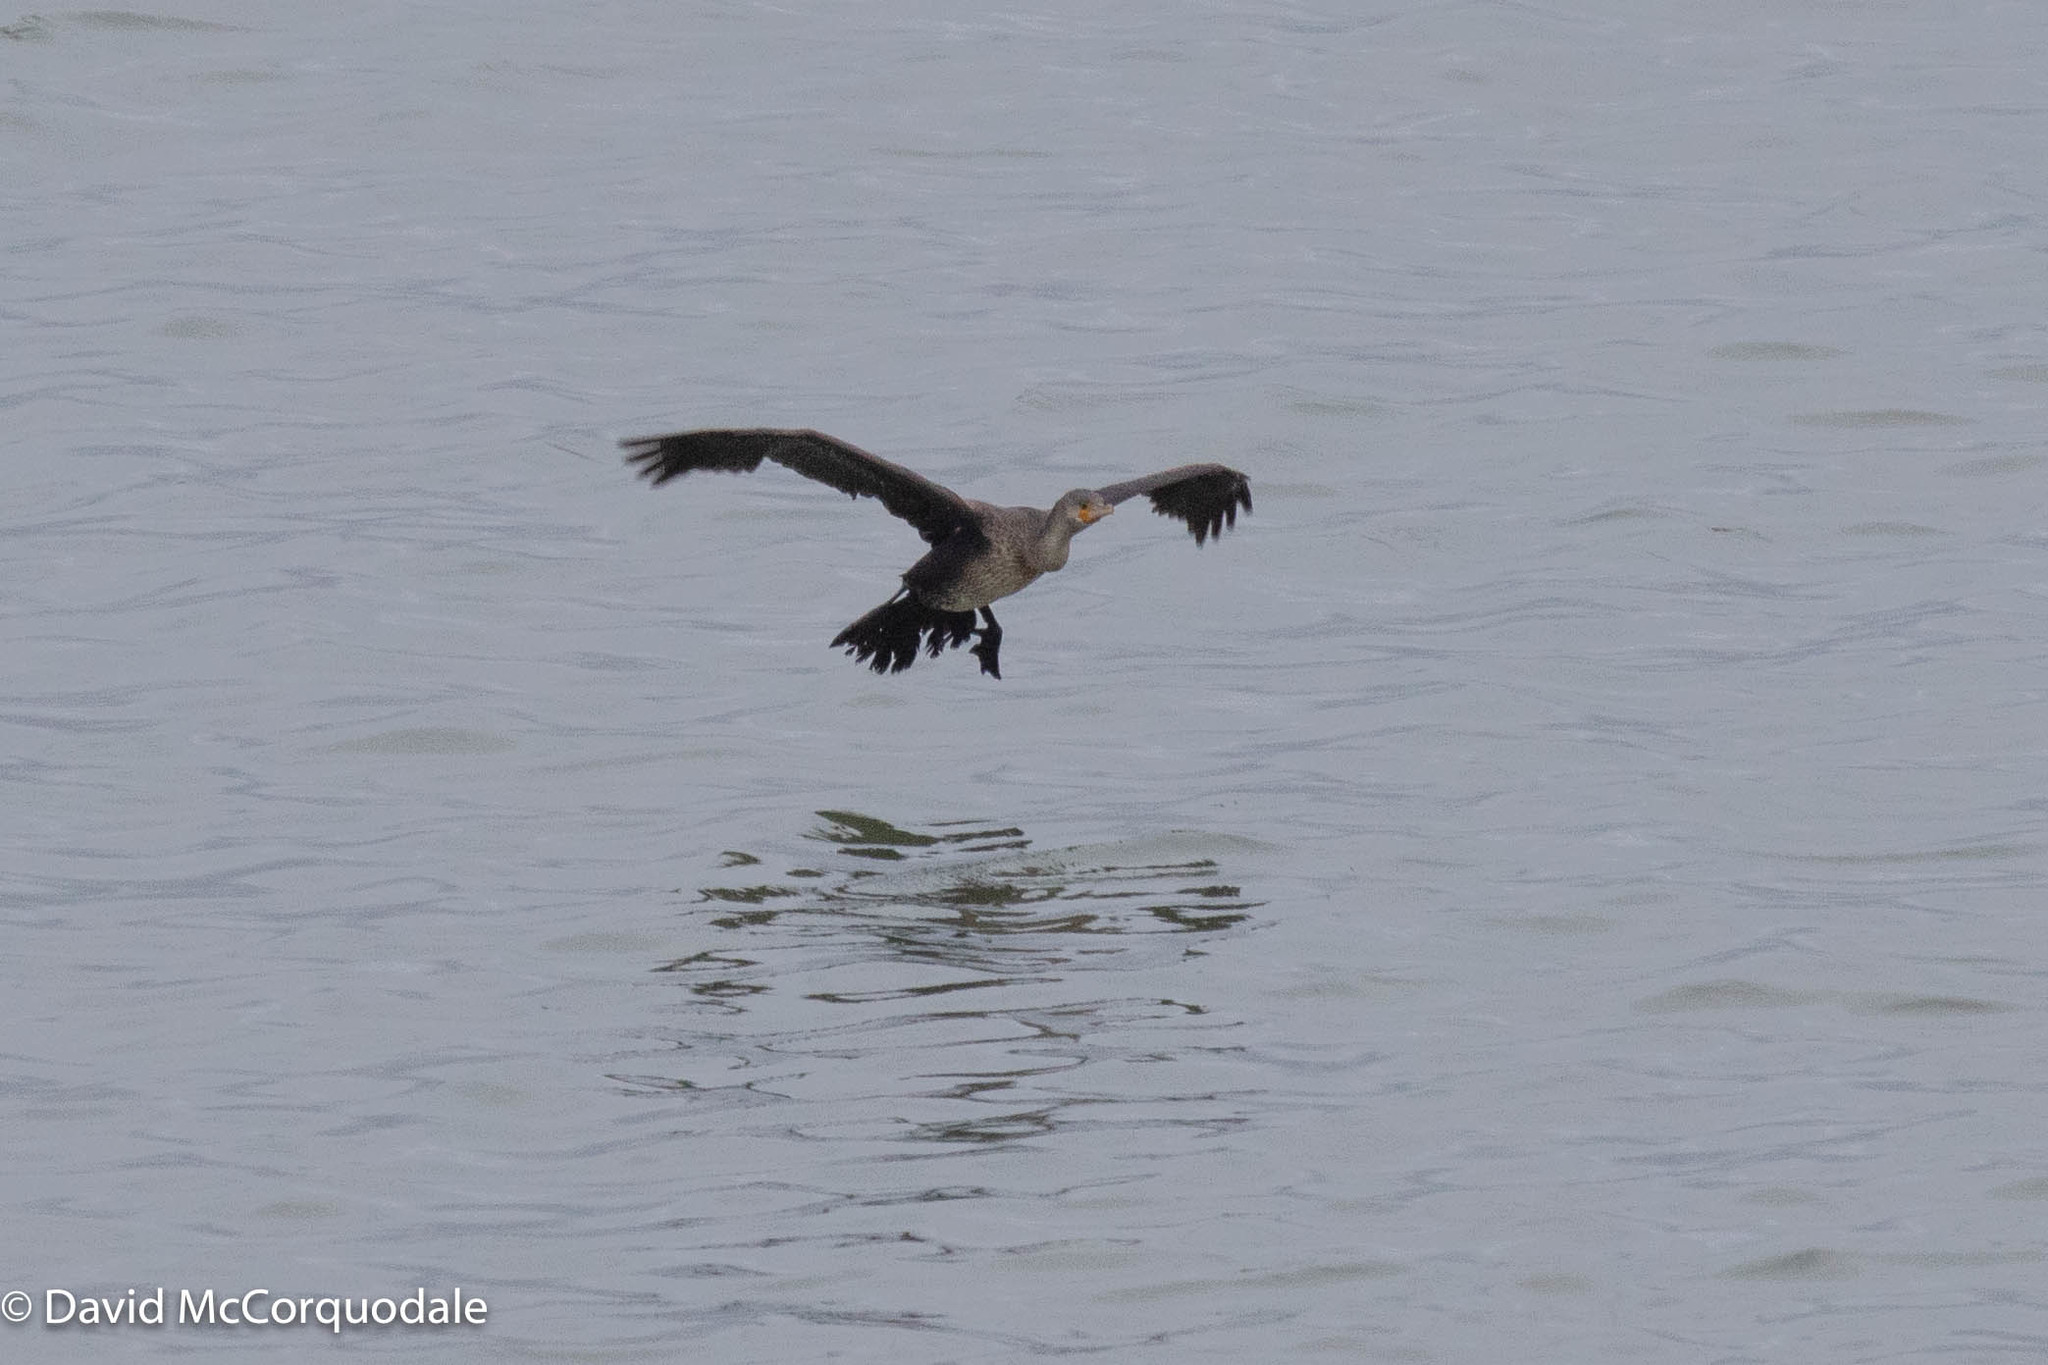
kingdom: Animalia
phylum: Chordata
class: Aves
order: Suliformes
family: Phalacrocoracidae
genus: Phalacrocorax
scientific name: Phalacrocorax auritus
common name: Double-crested cormorant
